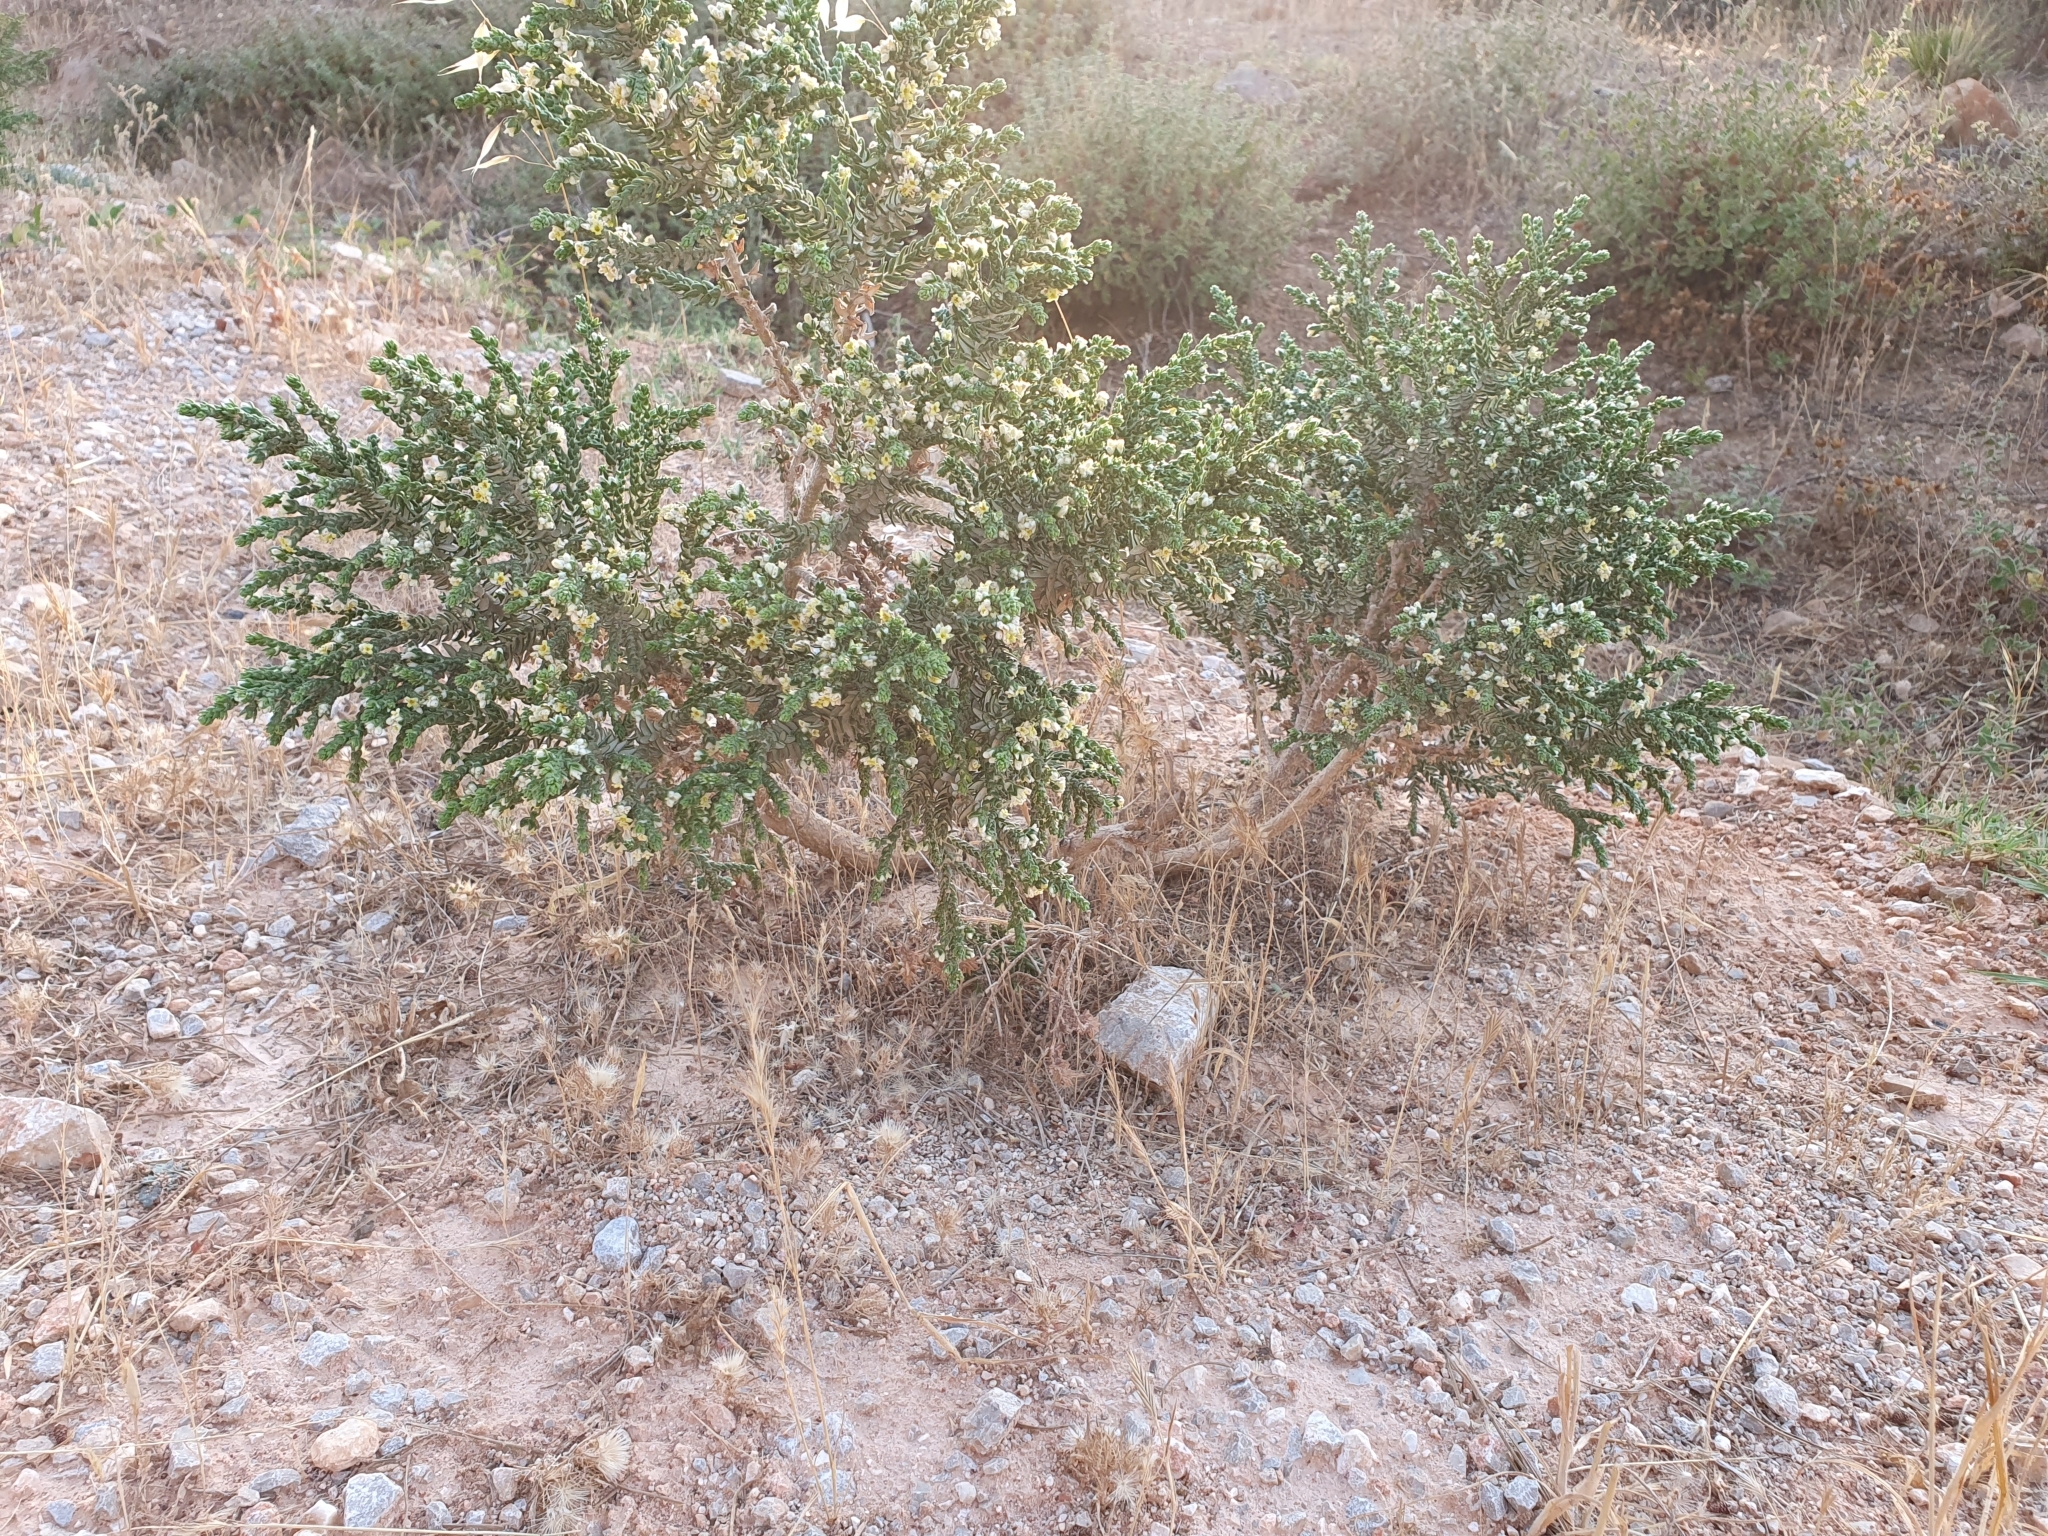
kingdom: Plantae
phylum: Tracheophyta
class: Magnoliopsida
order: Malvales
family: Thymelaeaceae
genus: Thymelaea
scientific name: Thymelaea hirsuta
